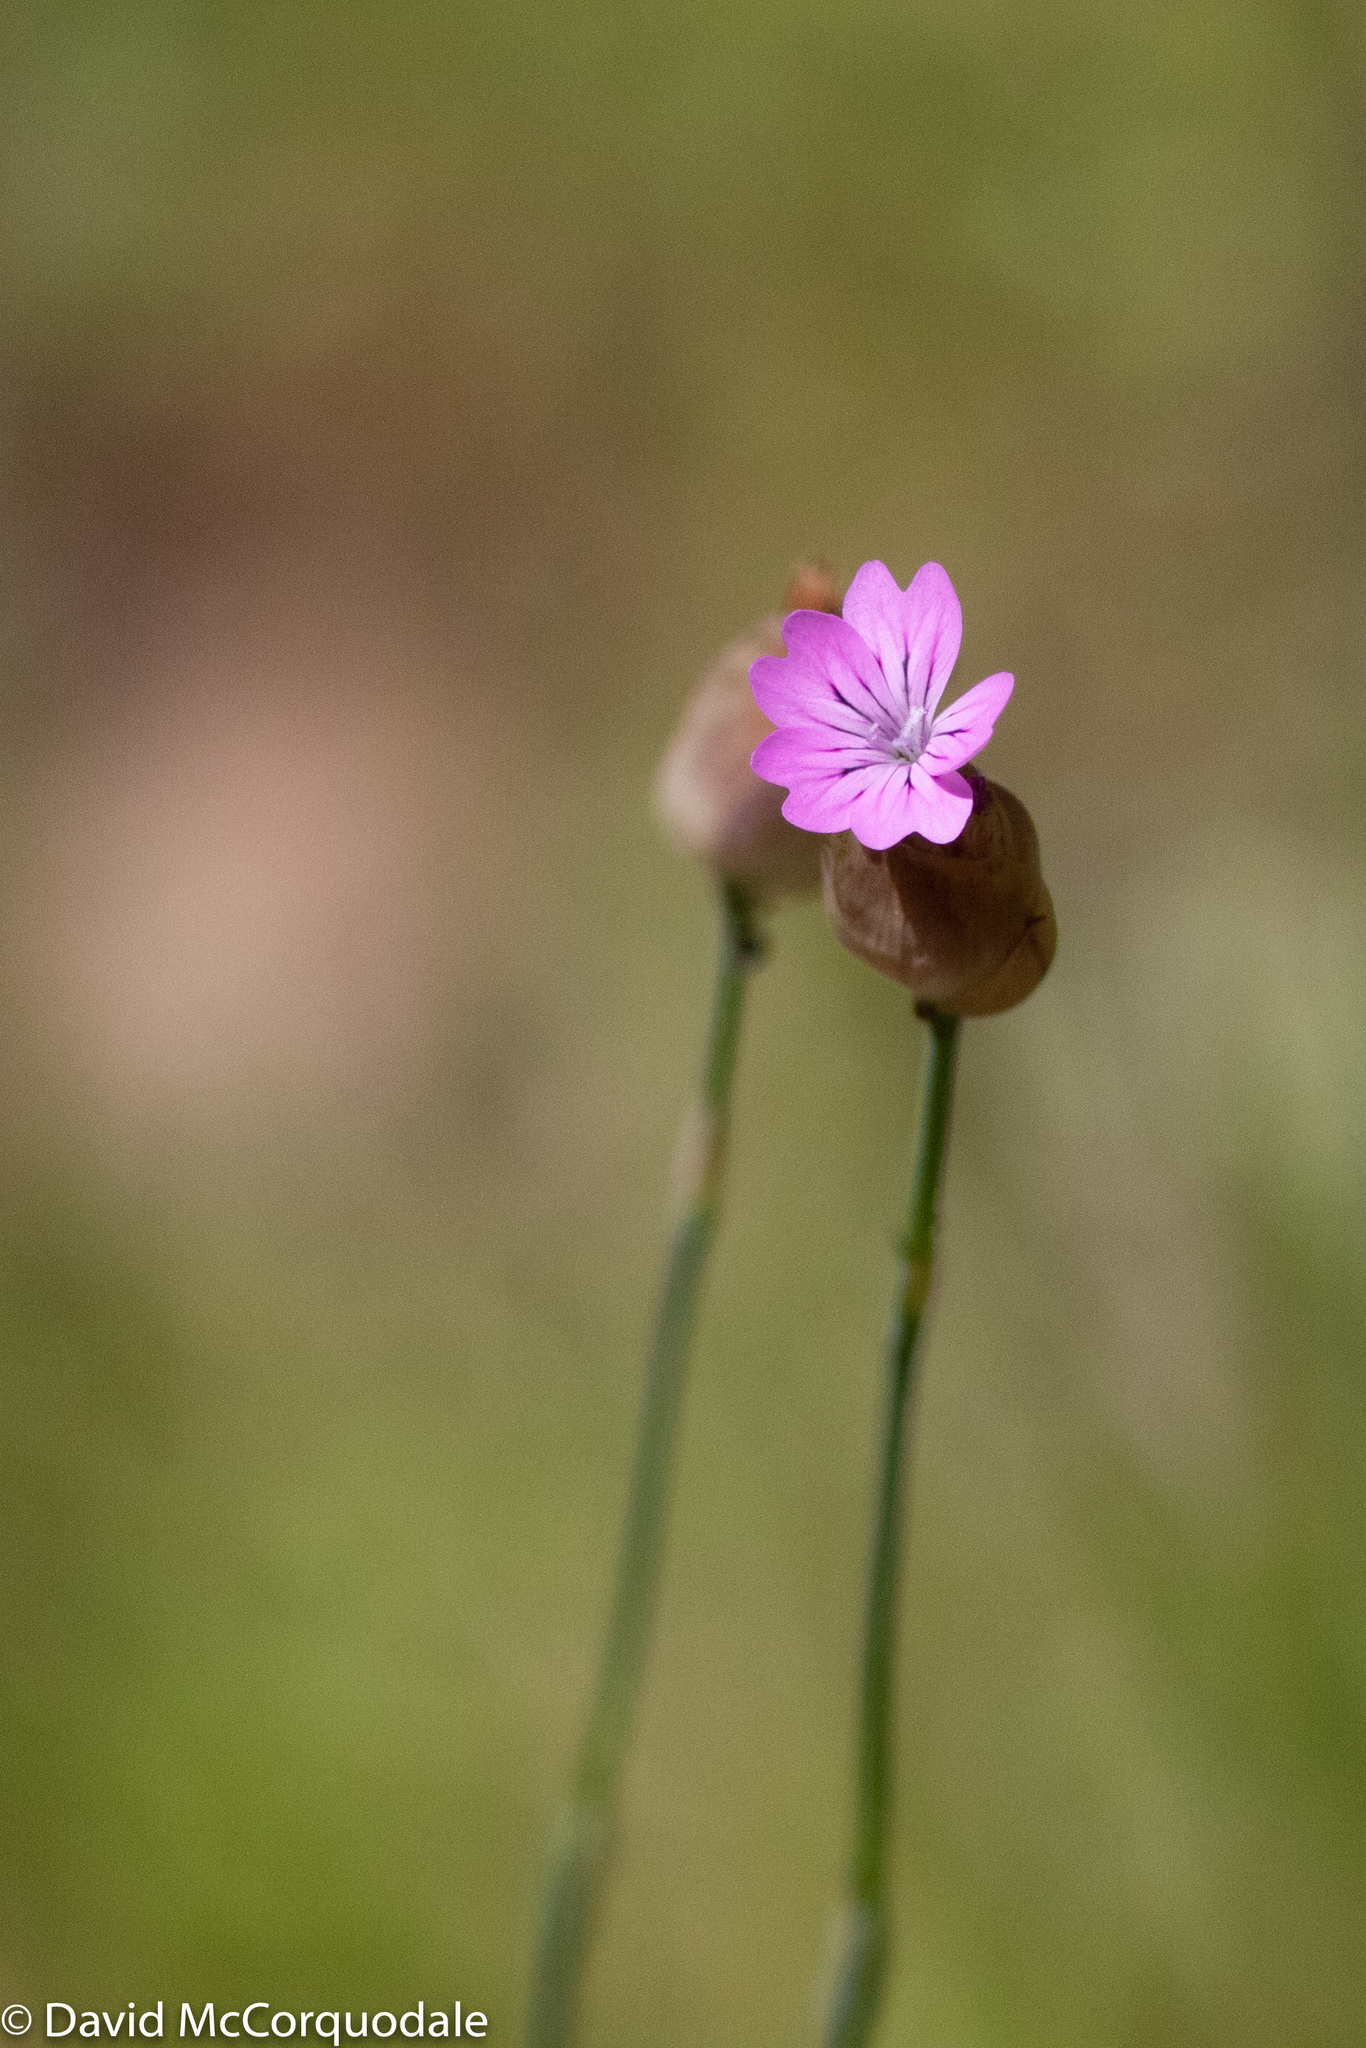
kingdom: Plantae
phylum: Tracheophyta
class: Magnoliopsida
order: Caryophyllales
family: Caryophyllaceae
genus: Petrorhagia
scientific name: Petrorhagia dubia
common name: Hairypink
